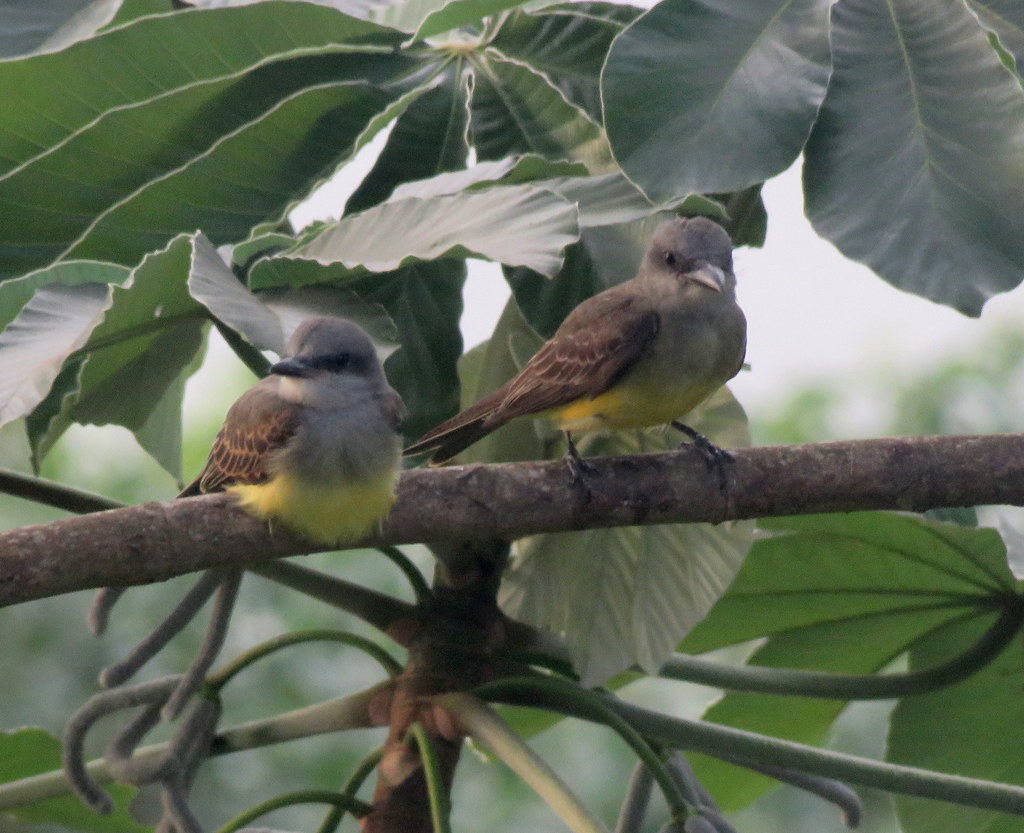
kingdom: Animalia
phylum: Chordata
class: Aves
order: Passeriformes
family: Tyrannidae
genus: Tyrannus
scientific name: Tyrannus melancholicus
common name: Tropical kingbird
